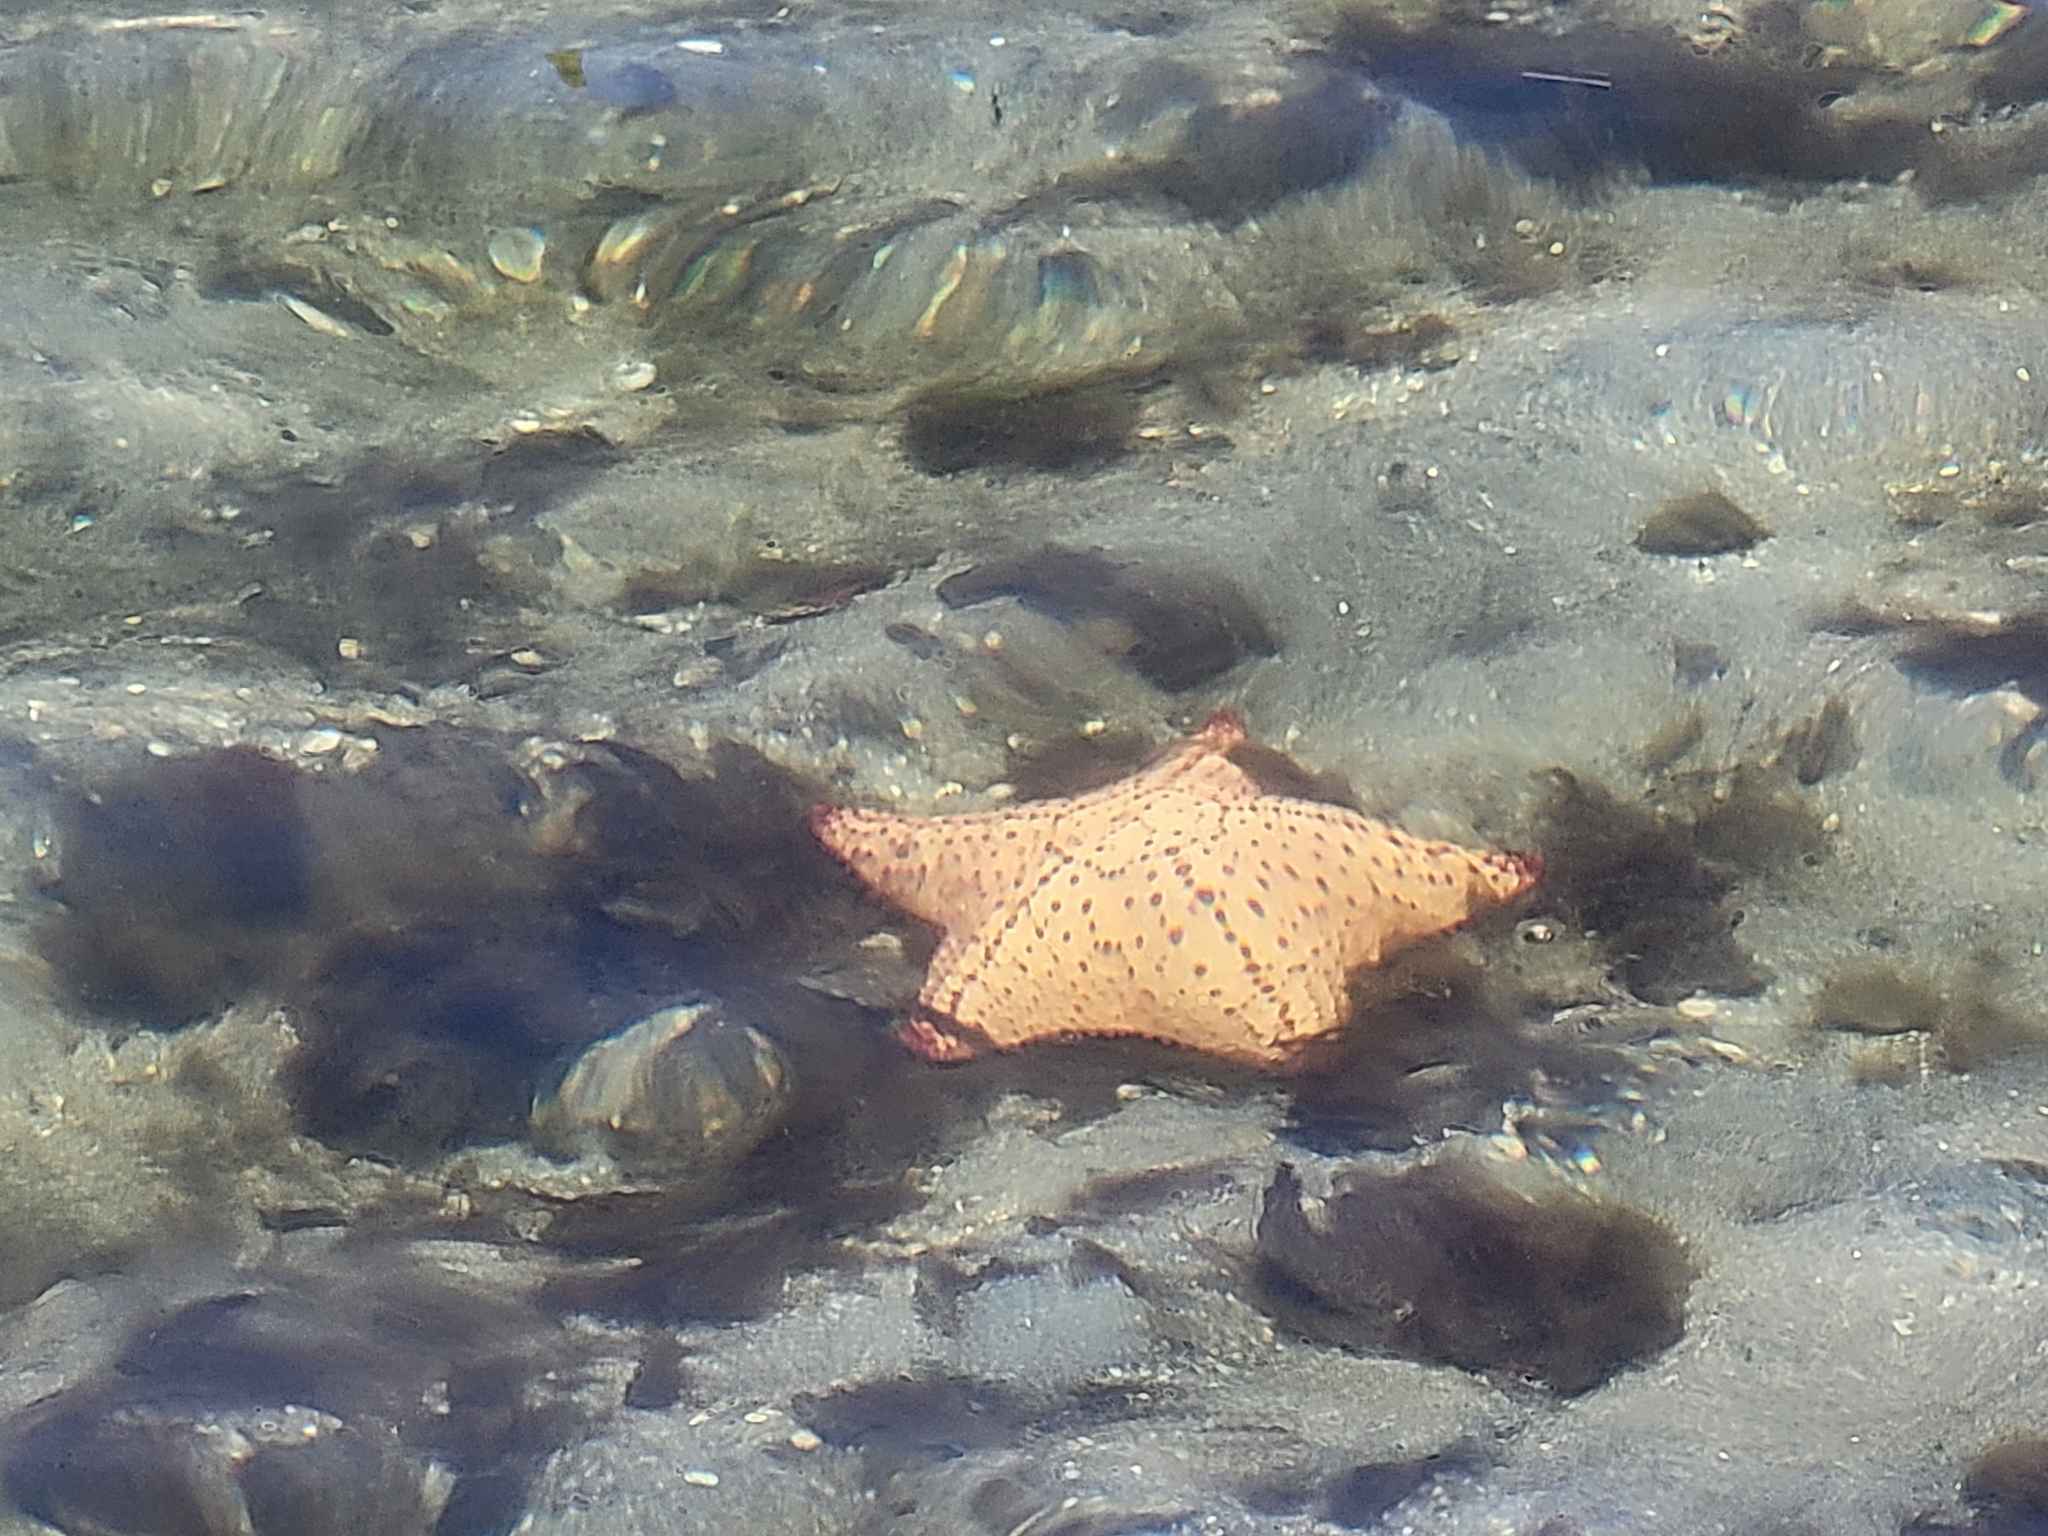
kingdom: Animalia
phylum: Echinodermata
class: Asteroidea
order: Valvatida
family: Oreasteridae
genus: Oreaster
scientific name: Oreaster reticulatus
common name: Cushion sea star
